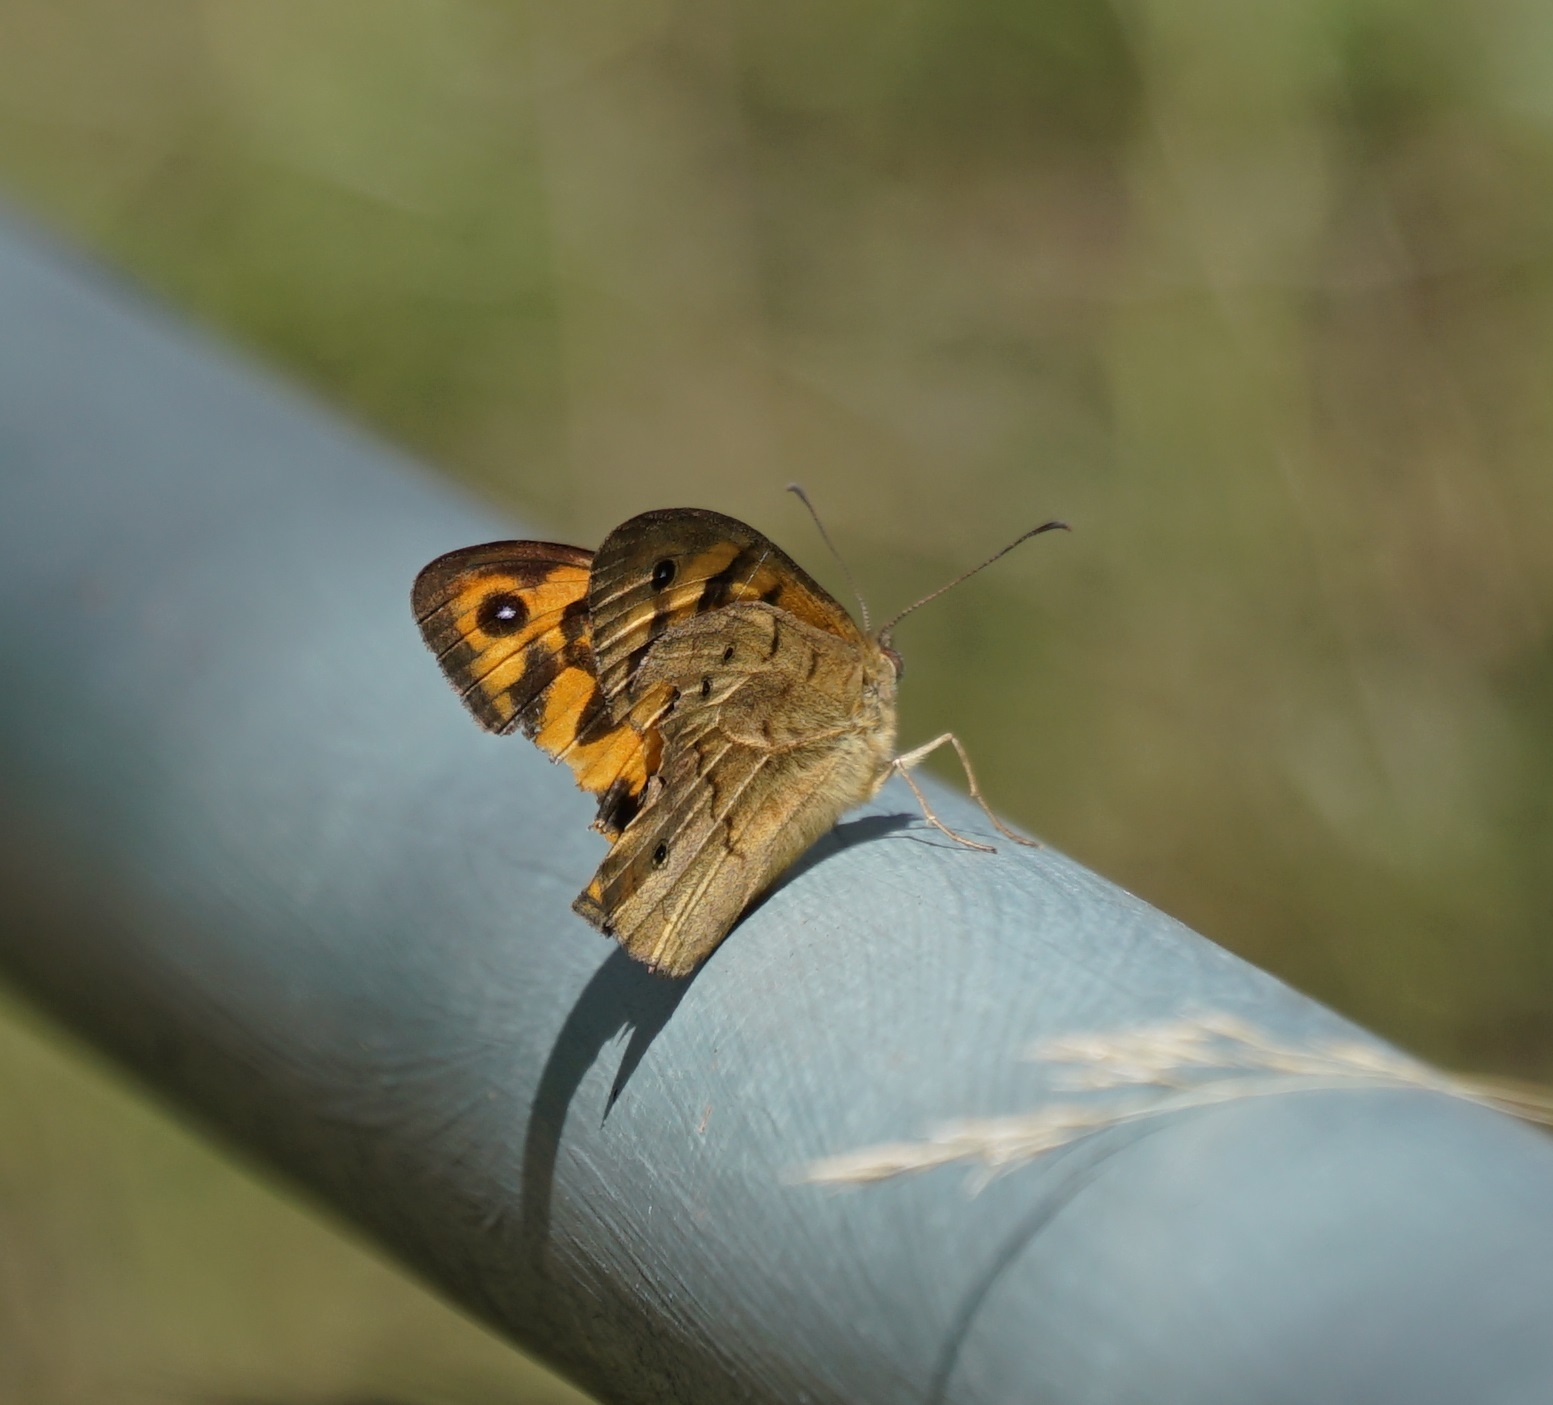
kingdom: Animalia
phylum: Arthropoda
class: Insecta
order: Lepidoptera
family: Nymphalidae
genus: Heteronympha
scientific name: Heteronympha merope
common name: Common brown
